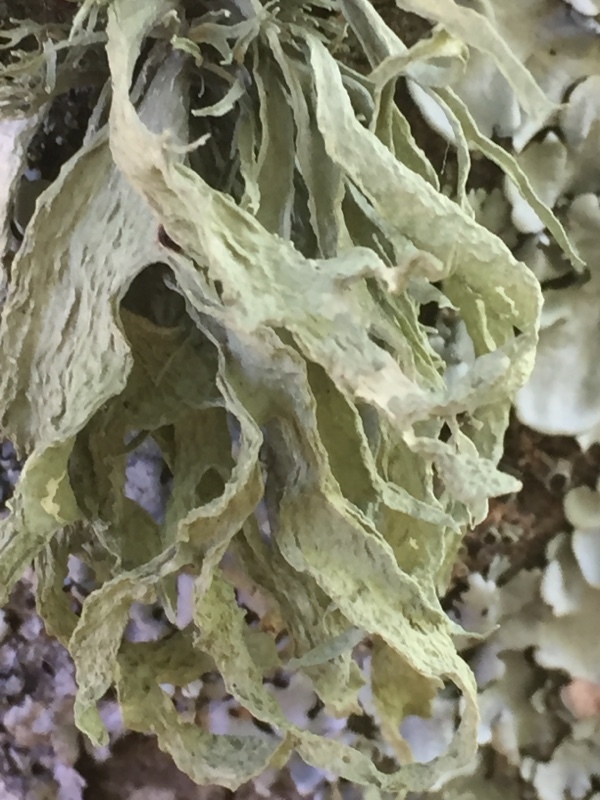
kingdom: Fungi
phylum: Ascomycota
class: Lecanoromycetes
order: Lecanorales
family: Ramalinaceae
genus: Ramalina
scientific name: Ramalina fraxinea
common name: Cartilage lichen
